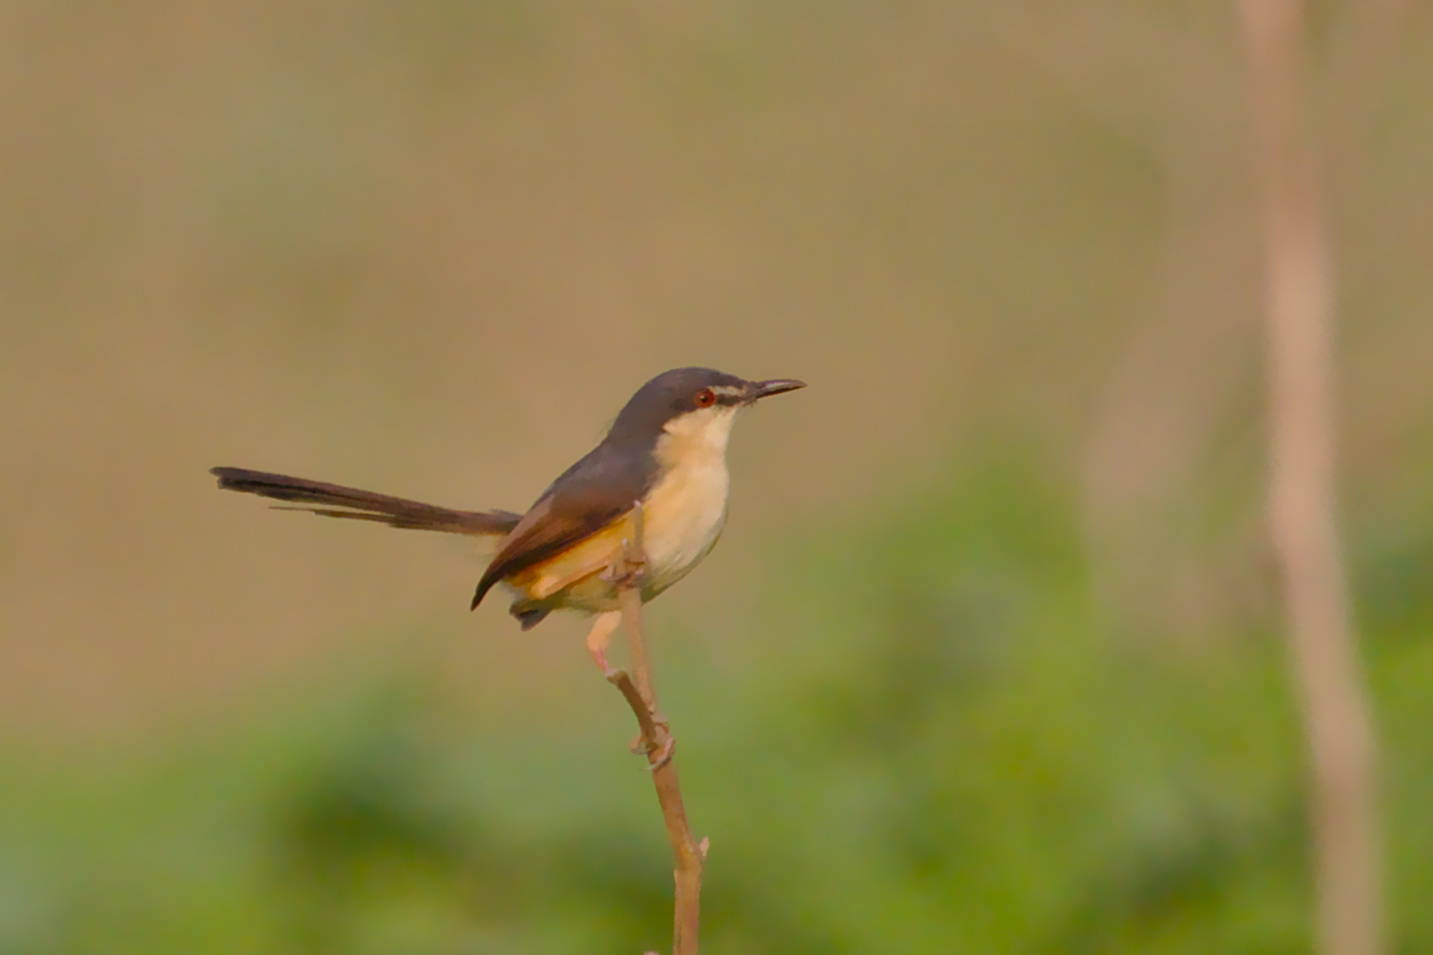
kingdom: Animalia
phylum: Chordata
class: Aves
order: Passeriformes
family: Cisticolidae
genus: Prinia
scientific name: Prinia socialis
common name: Ashy prinia
